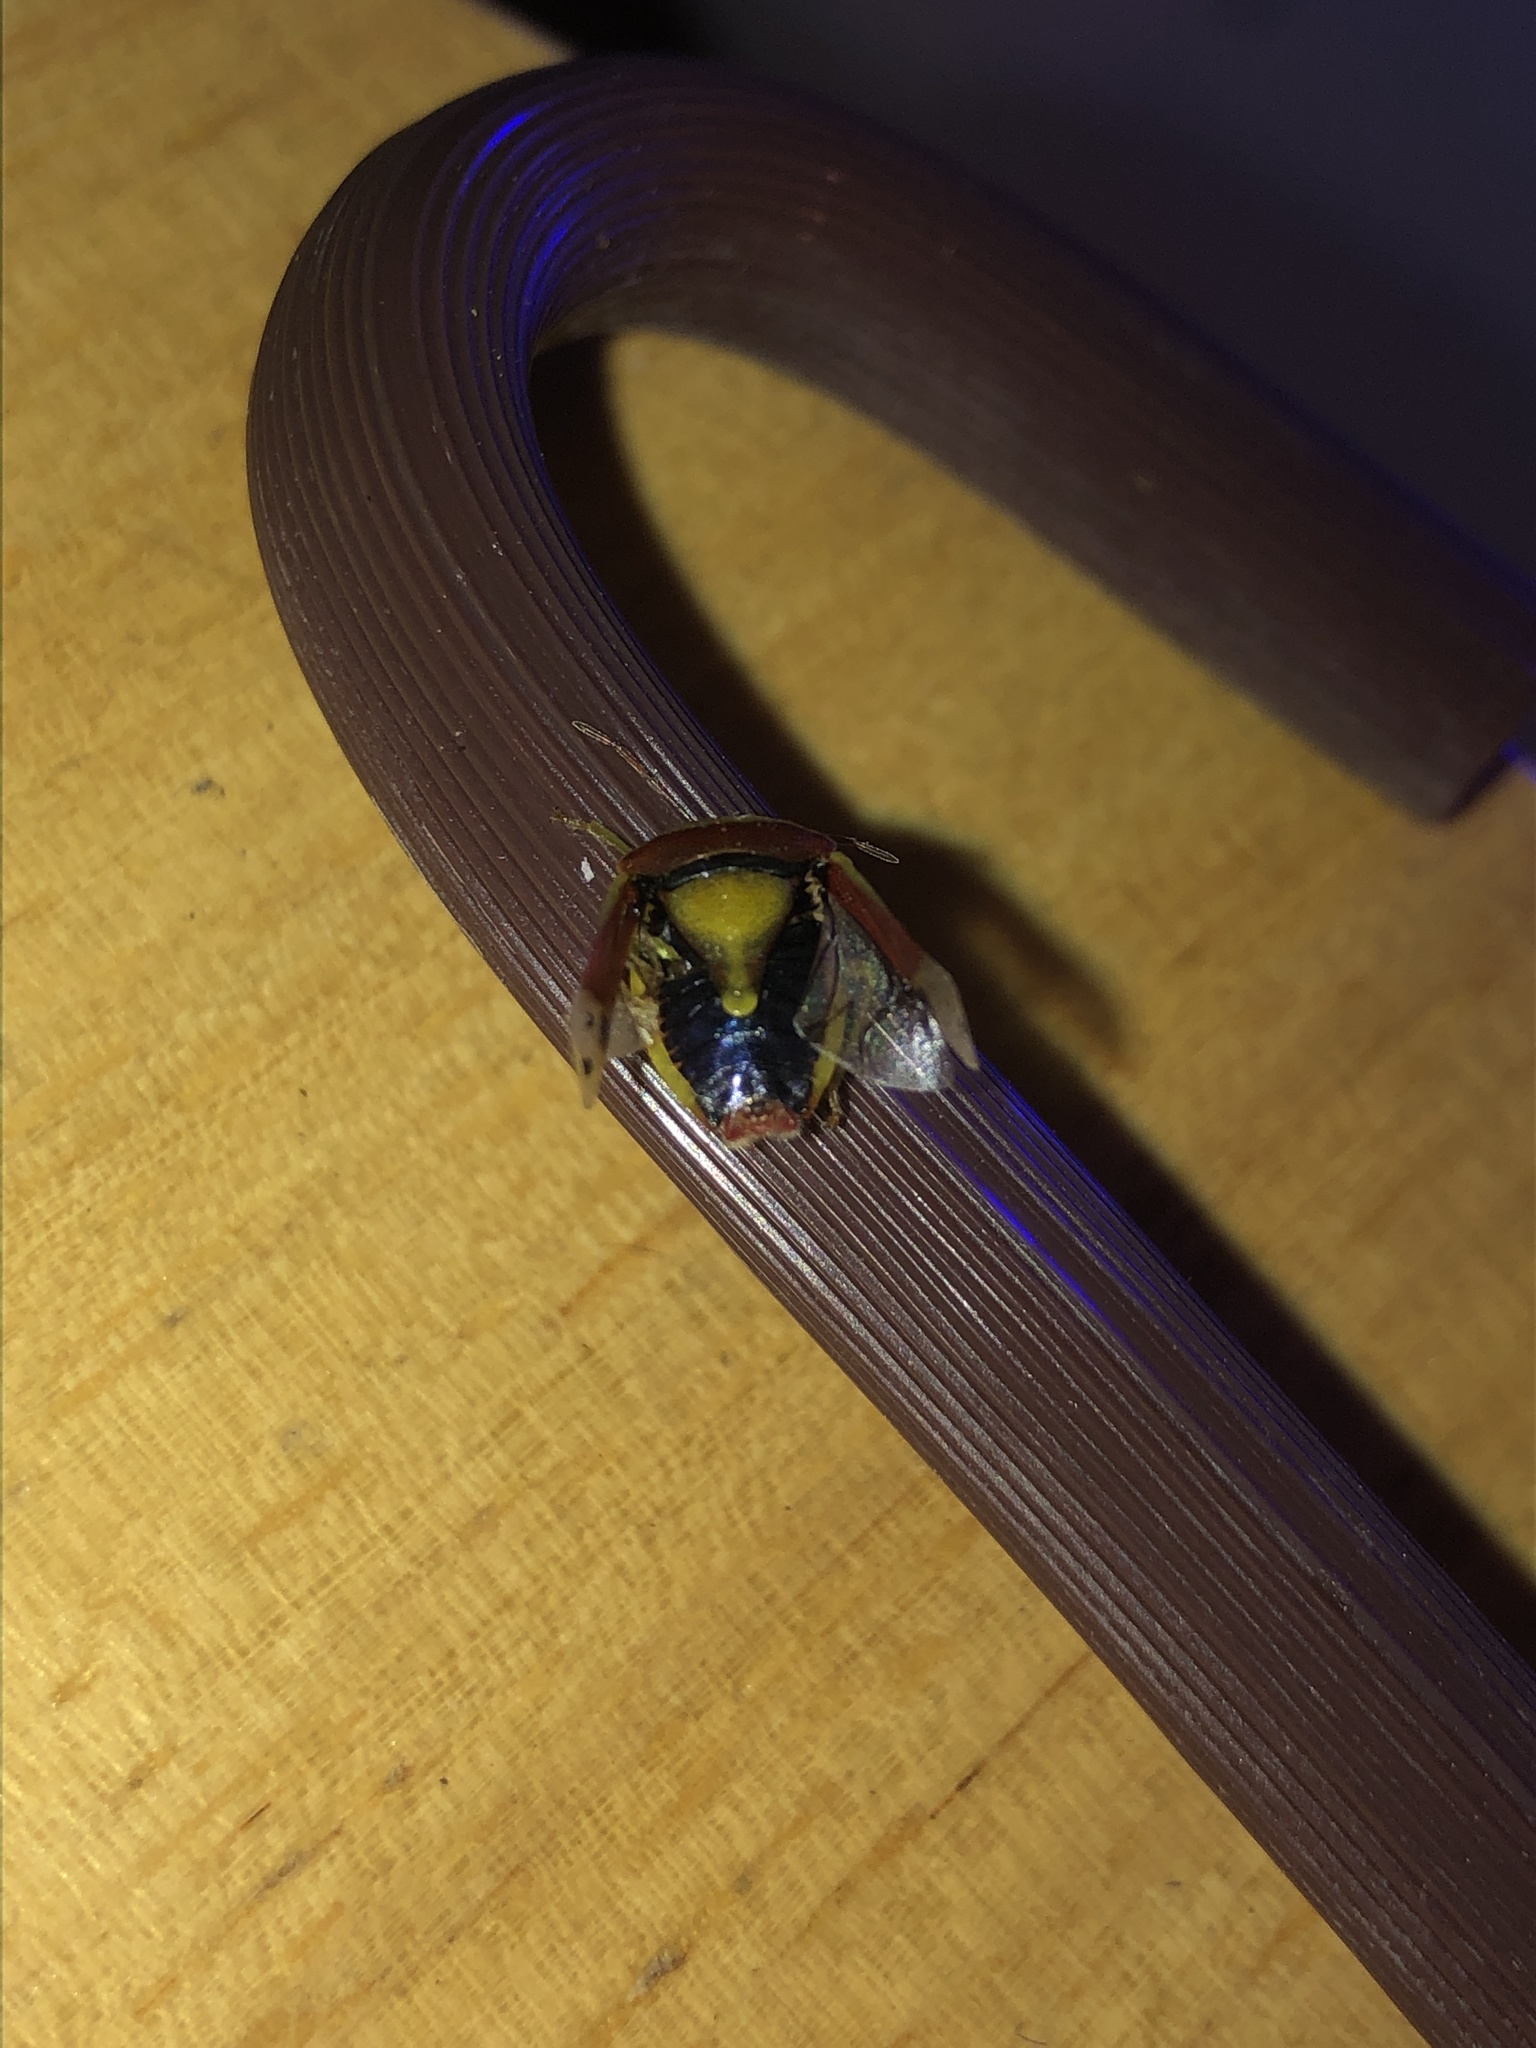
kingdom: Animalia
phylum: Arthropoda
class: Insecta
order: Hemiptera
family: Pentatomidae
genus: Banasa
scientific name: Banasa dimidiata
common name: Green burgundy stink bug
